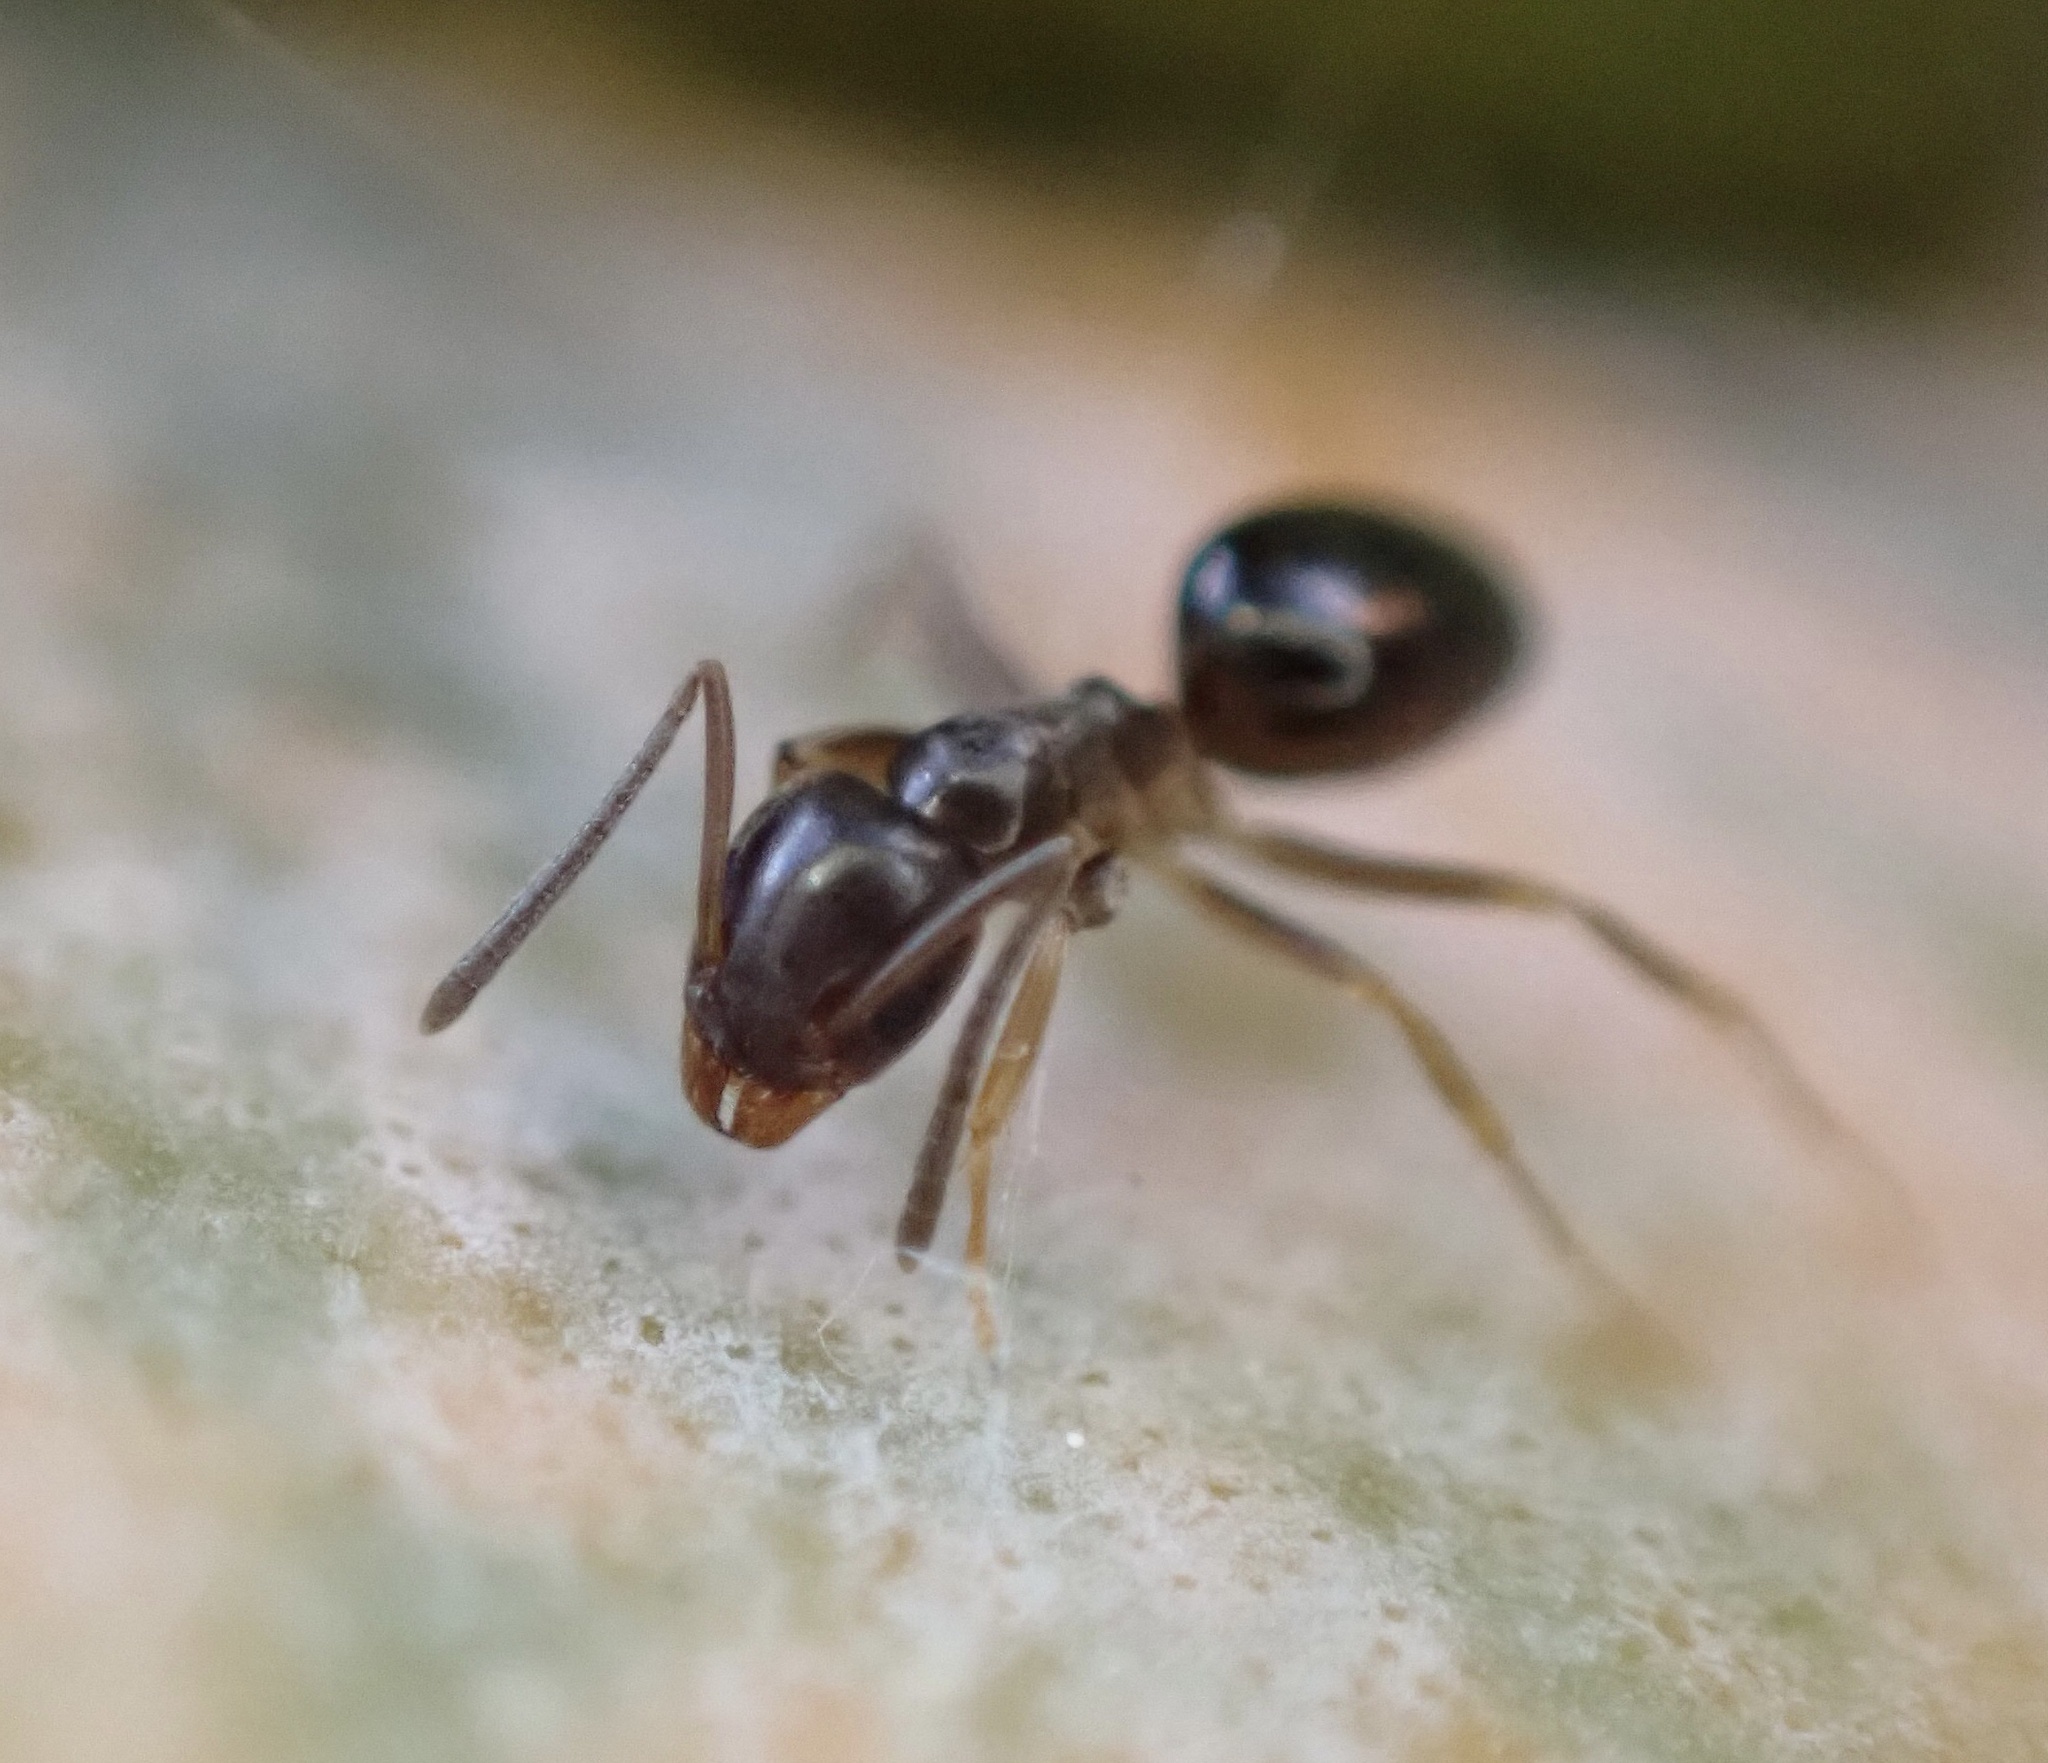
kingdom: Animalia
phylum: Arthropoda
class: Insecta
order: Hymenoptera
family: Formicidae
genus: Tapinoma
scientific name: Tapinoma sessile
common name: Odorous house ant
